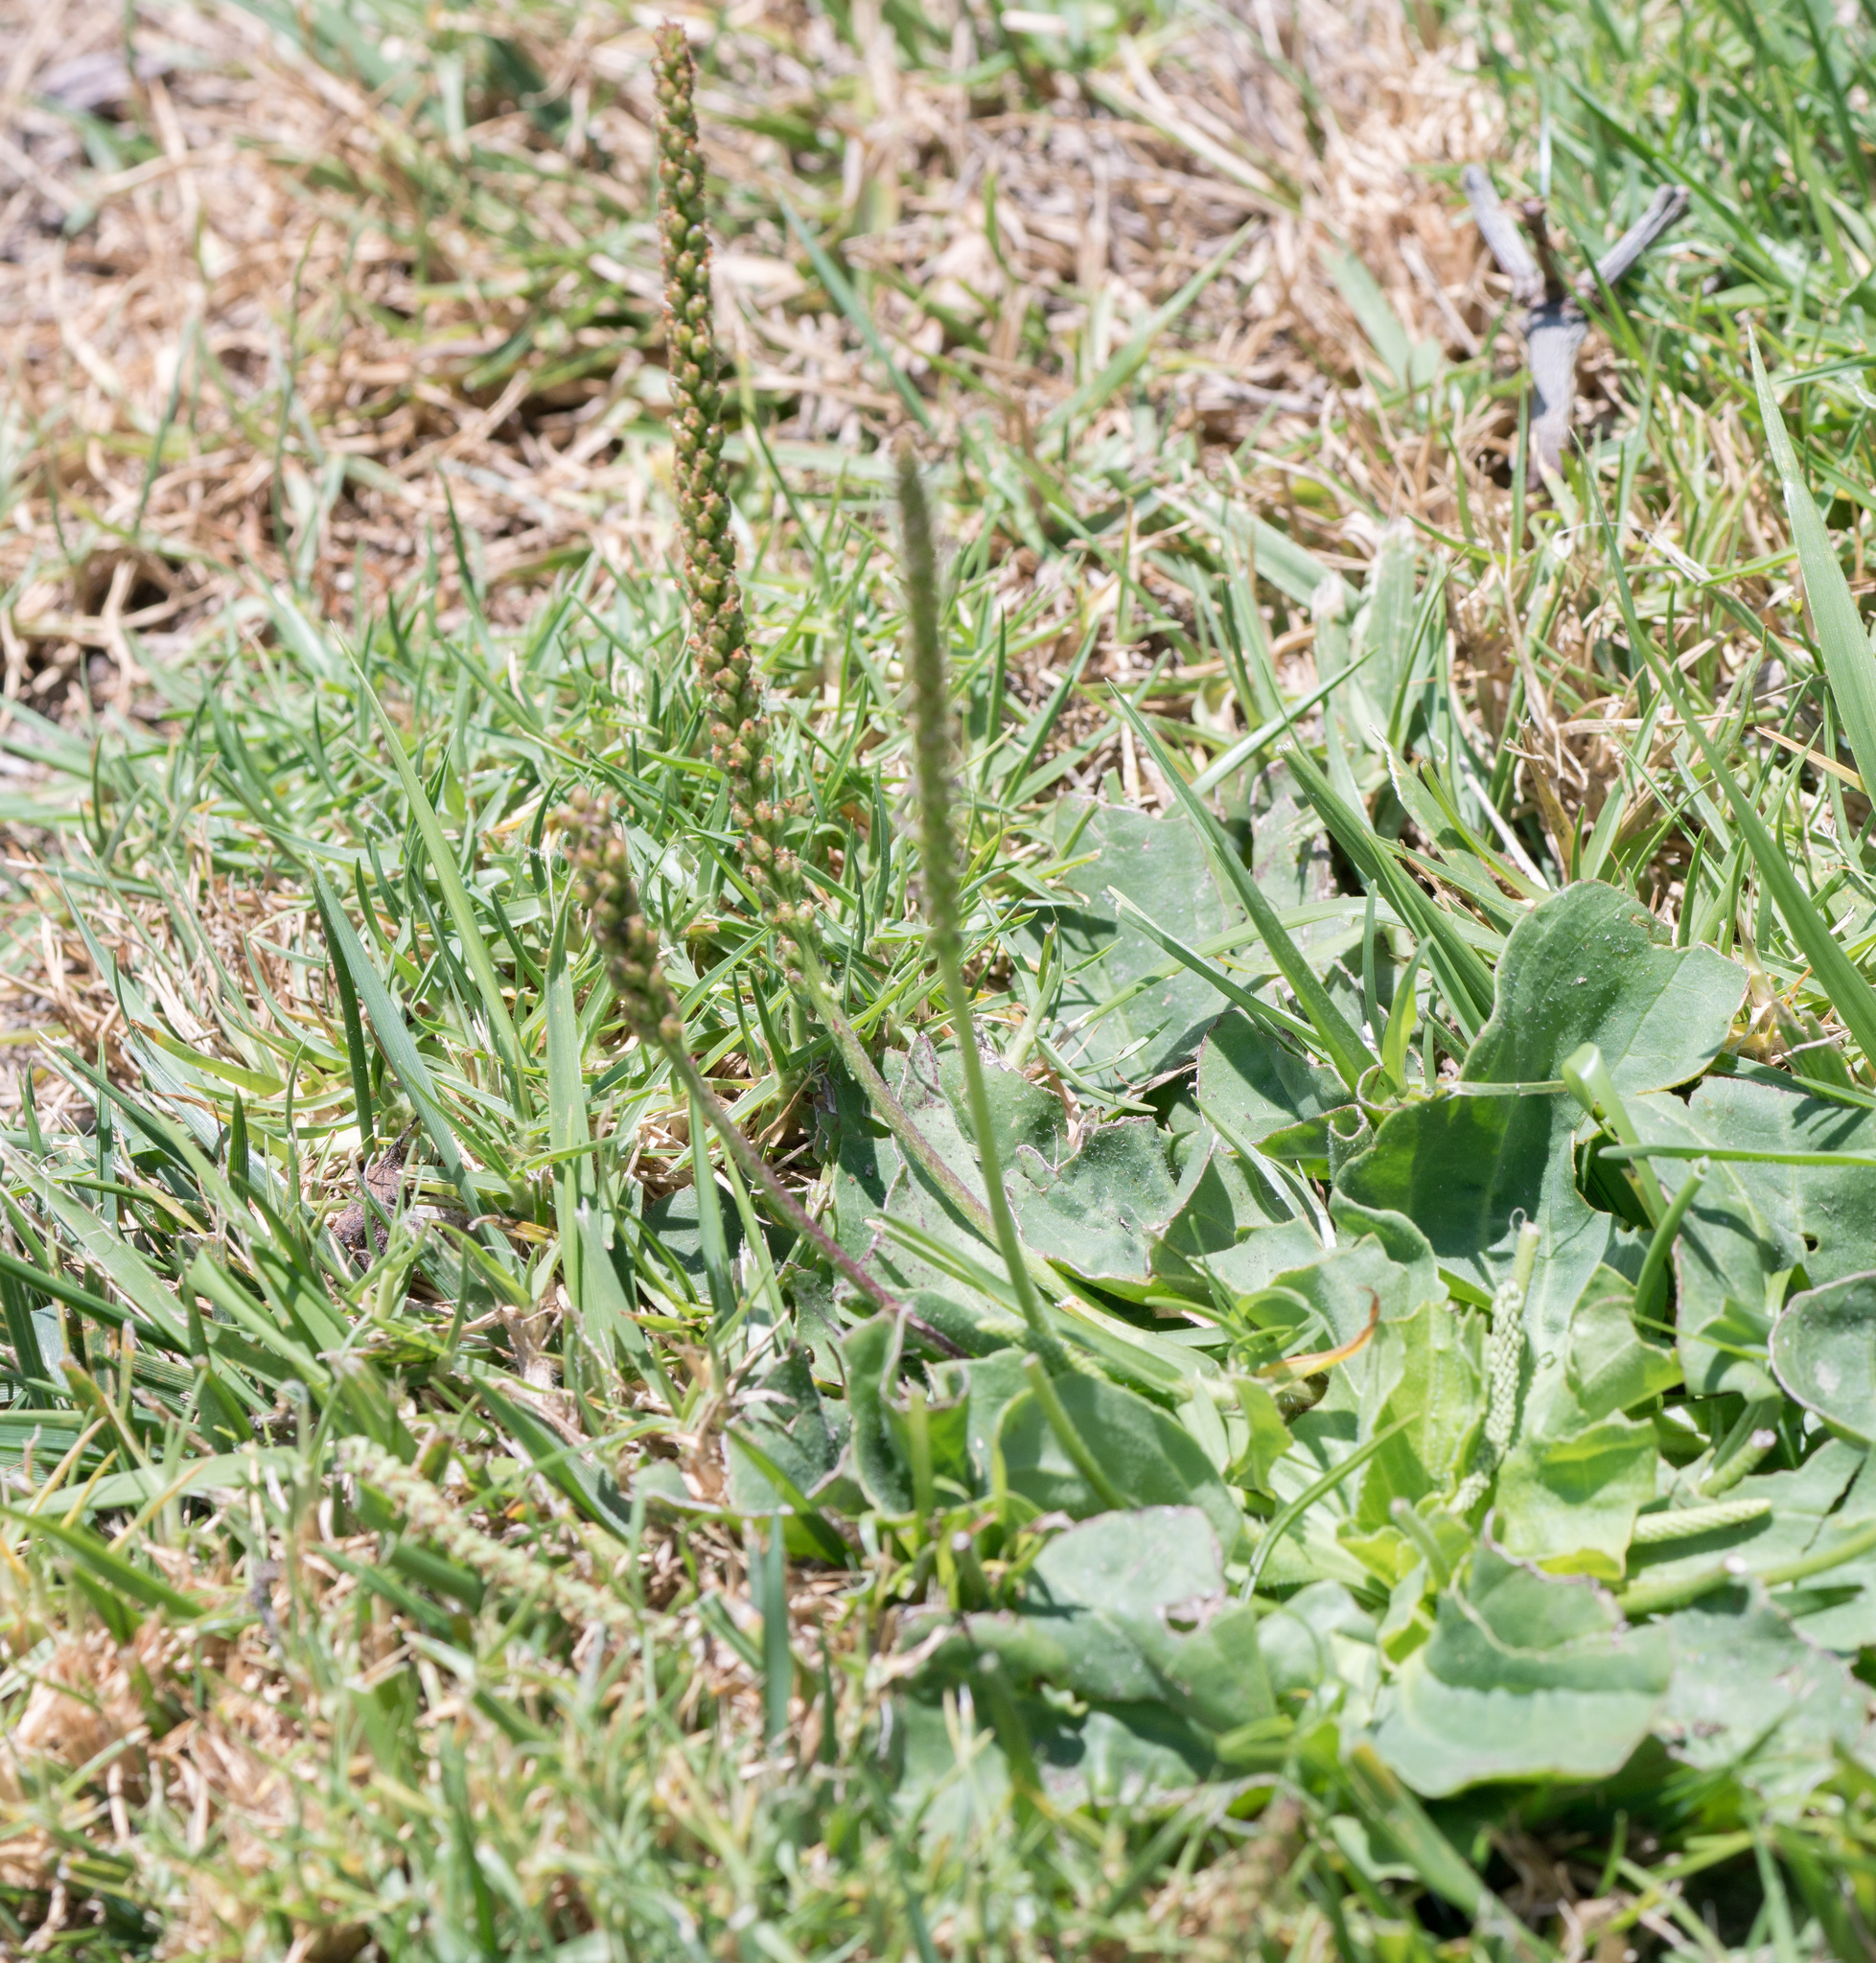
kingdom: Plantae
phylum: Tracheophyta
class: Magnoliopsida
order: Lamiales
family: Plantaginaceae
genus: Plantago
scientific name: Plantago major
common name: Common plantain
